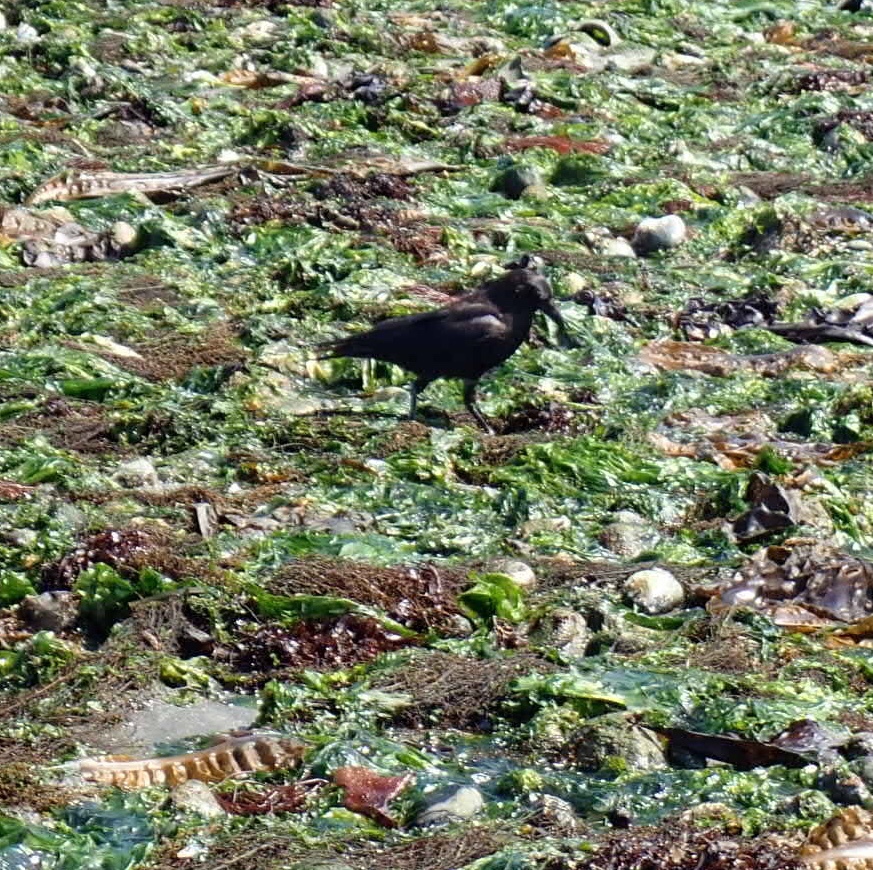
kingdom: Animalia
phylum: Chordata
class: Aves
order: Passeriformes
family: Corvidae
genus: Corvus
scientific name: Corvus brachyrhynchos
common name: American crow
